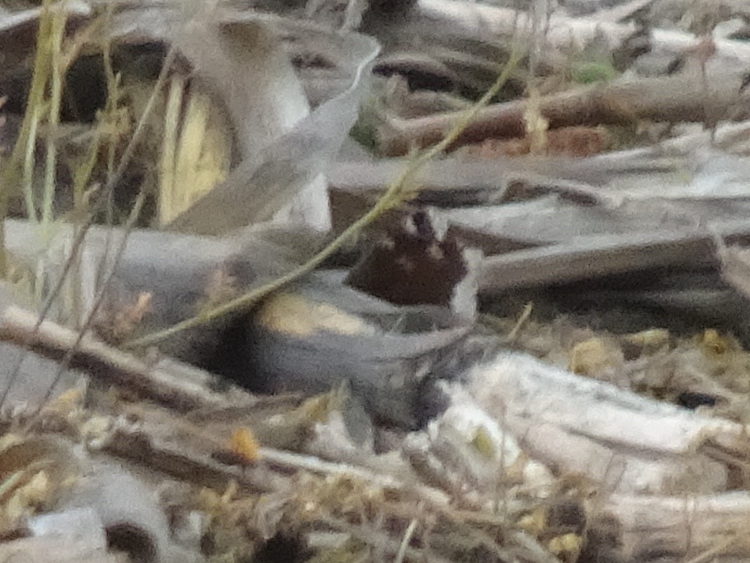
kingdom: Animalia
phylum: Arthropoda
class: Insecta
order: Lepidoptera
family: Nymphalidae
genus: Nymphalis
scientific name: Nymphalis antiopa
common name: Camberwell beauty
